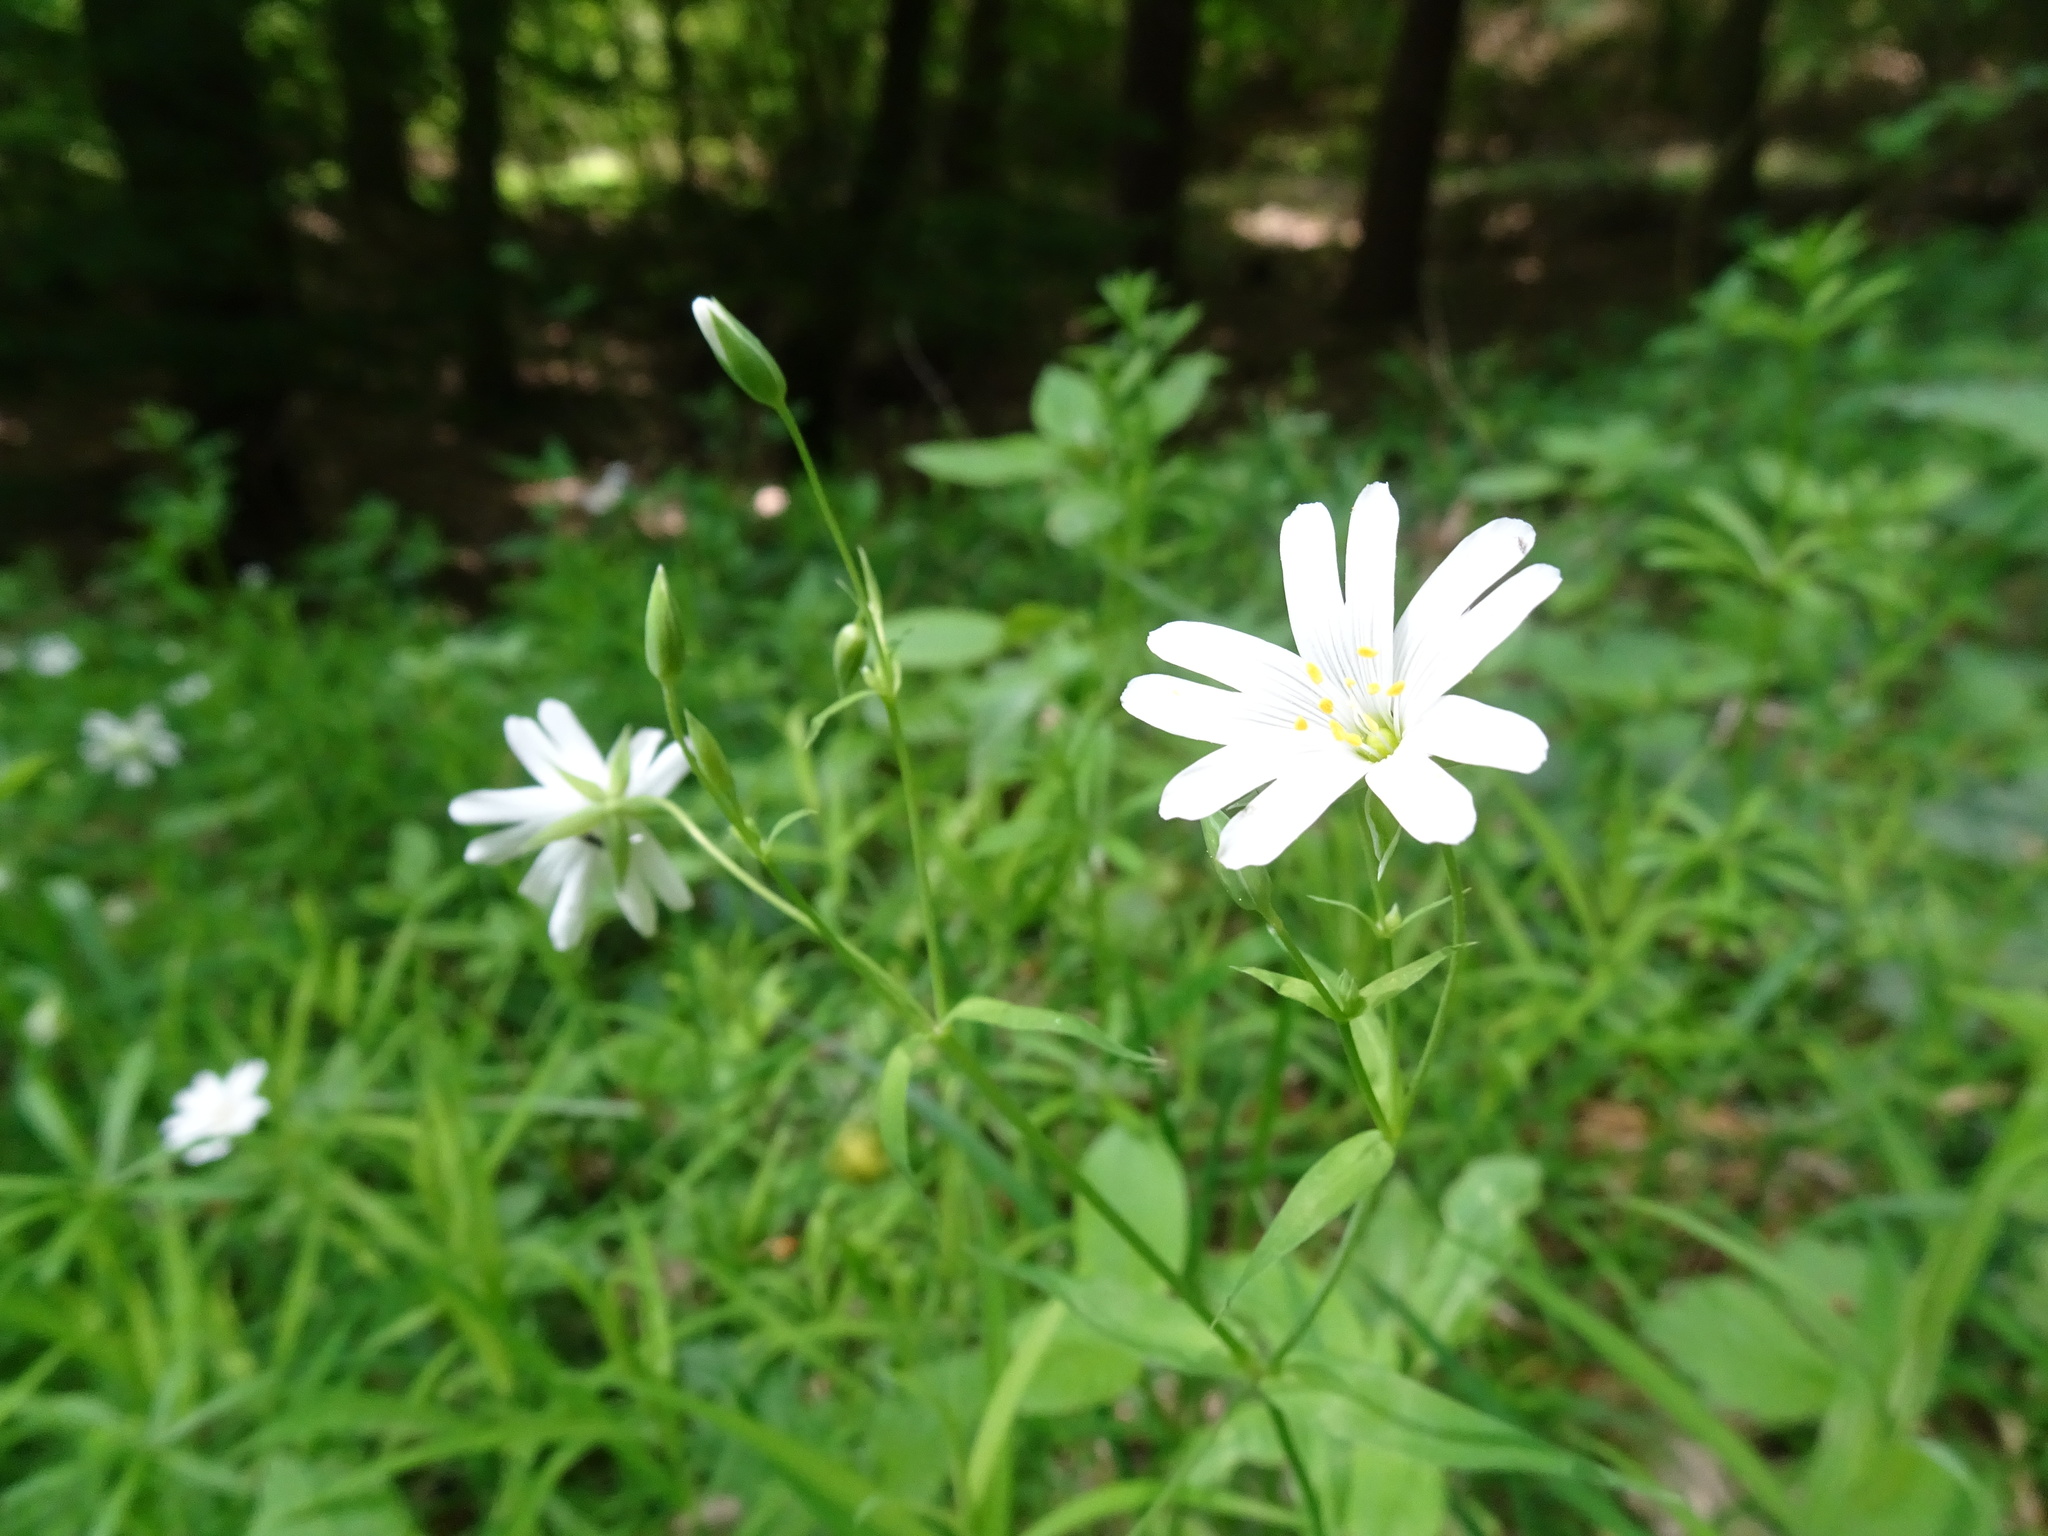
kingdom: Plantae
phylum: Tracheophyta
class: Magnoliopsida
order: Caryophyllales
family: Caryophyllaceae
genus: Rabelera
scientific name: Rabelera holostea
